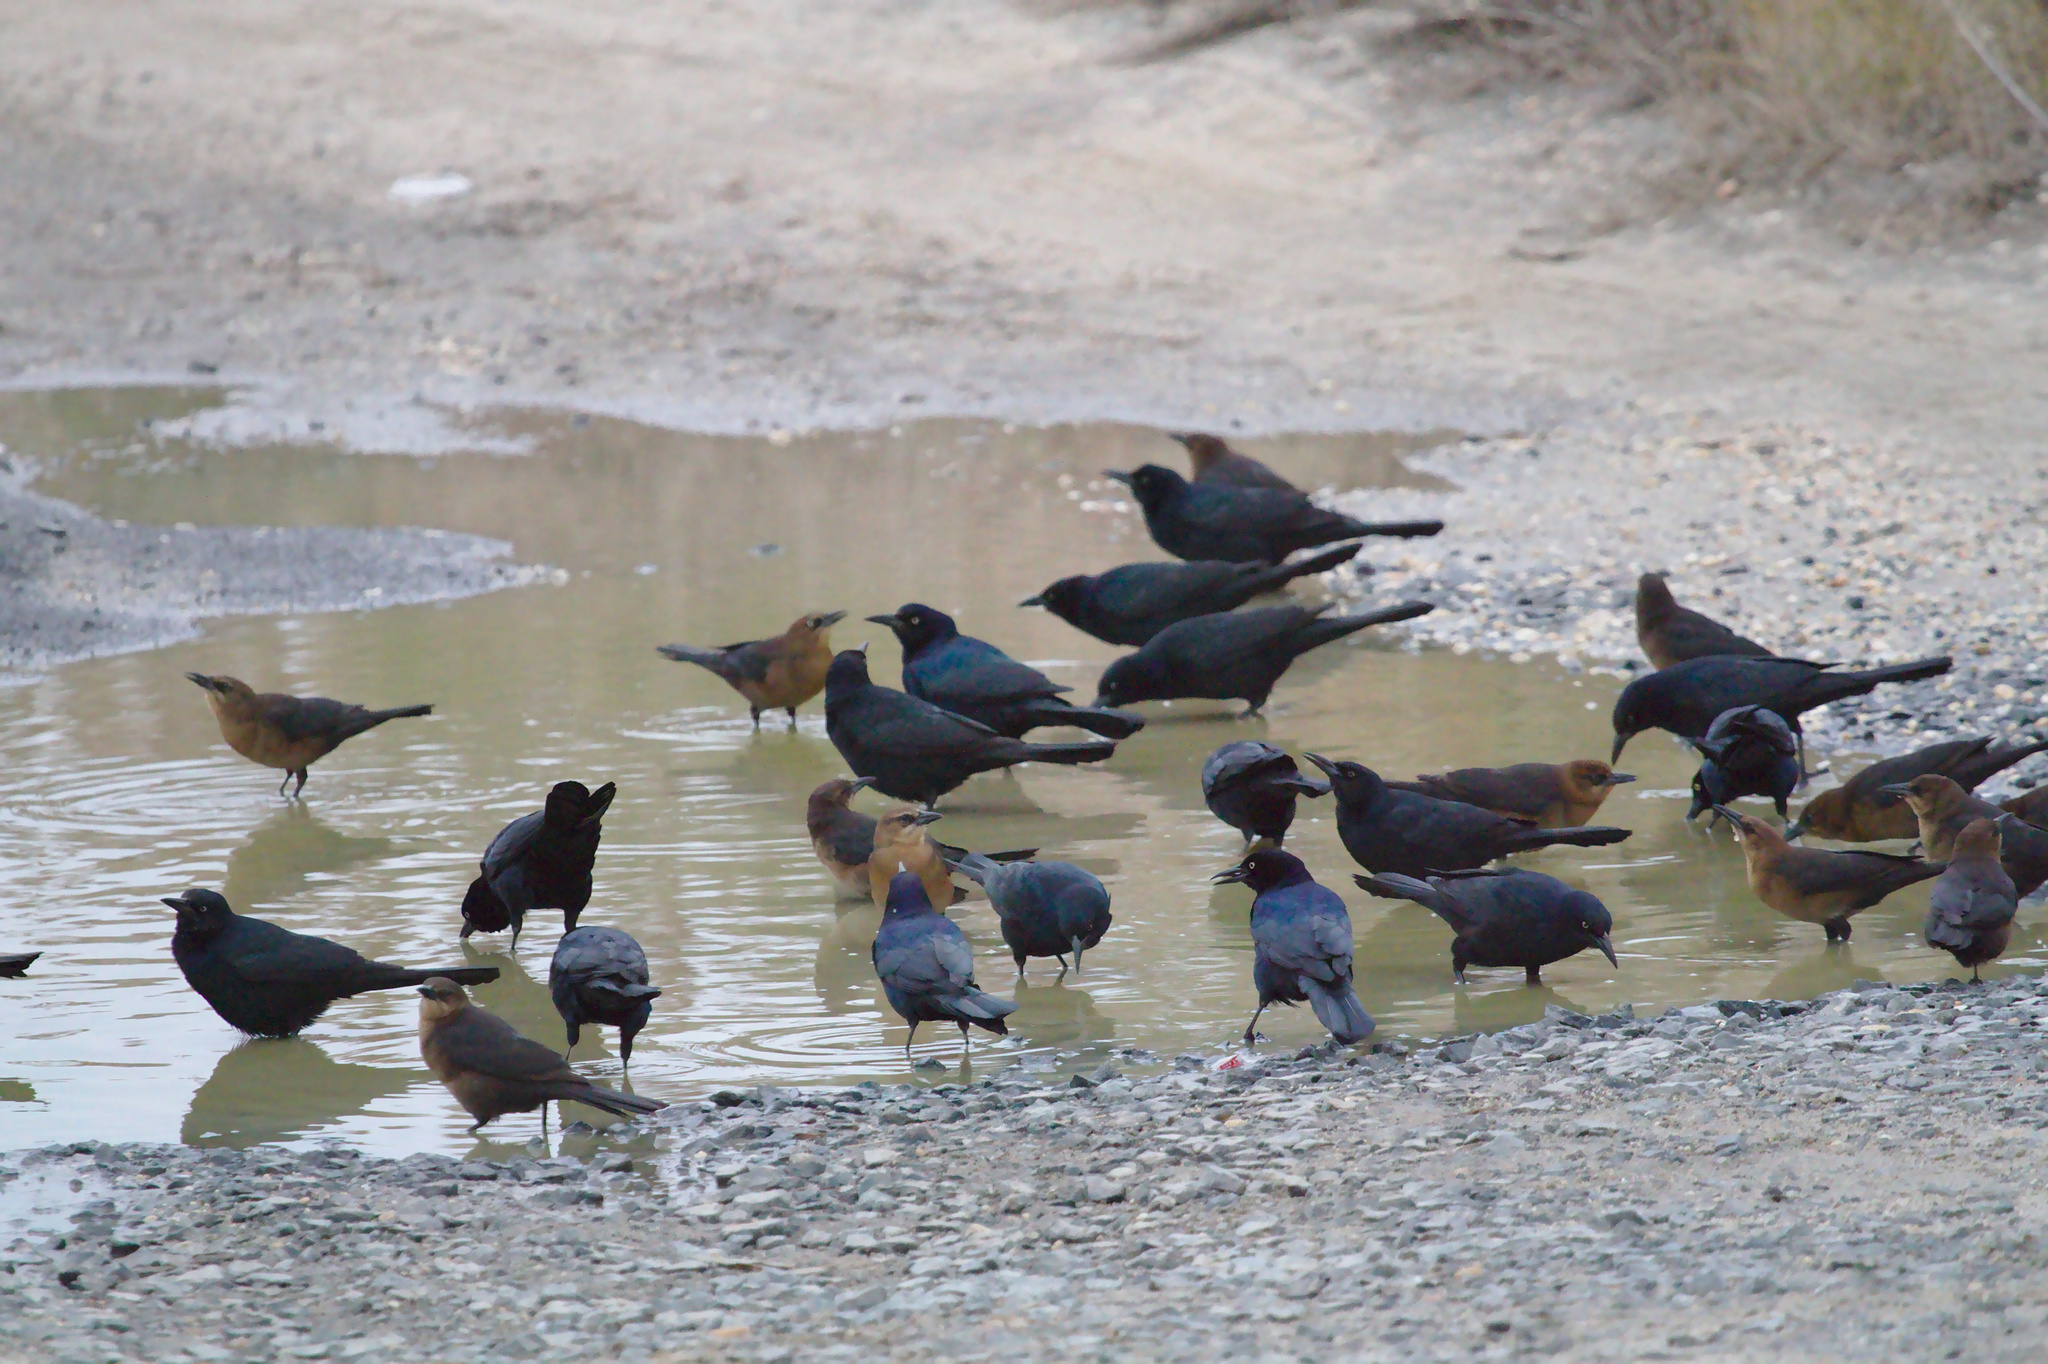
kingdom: Animalia
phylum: Chordata
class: Aves
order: Passeriformes
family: Icteridae
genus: Quiscalus
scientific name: Quiscalus major
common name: Boat-tailed grackle
